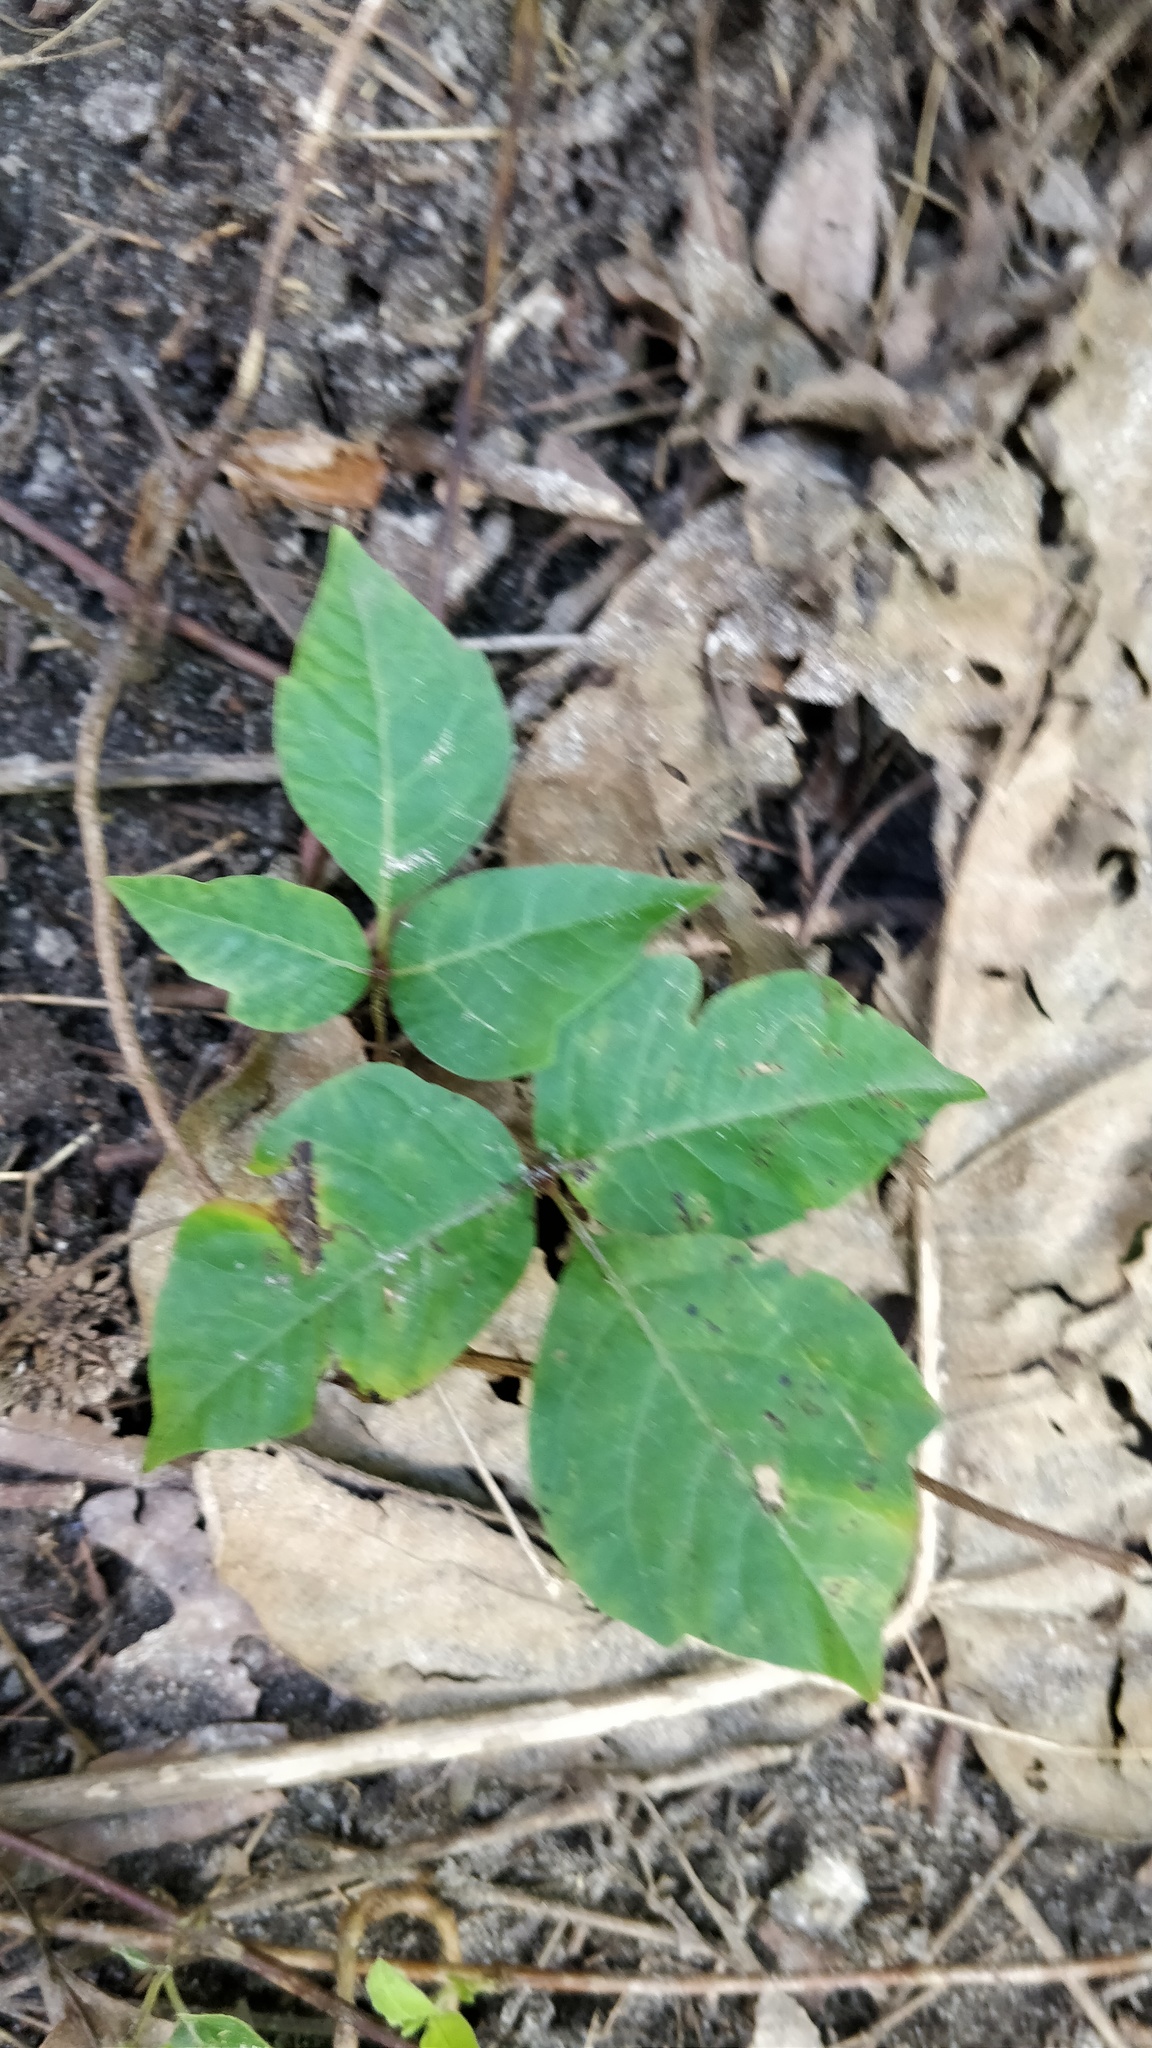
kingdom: Plantae
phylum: Tracheophyta
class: Magnoliopsida
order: Sapindales
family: Anacardiaceae
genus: Toxicodendron
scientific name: Toxicodendron radicans
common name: Poison ivy
